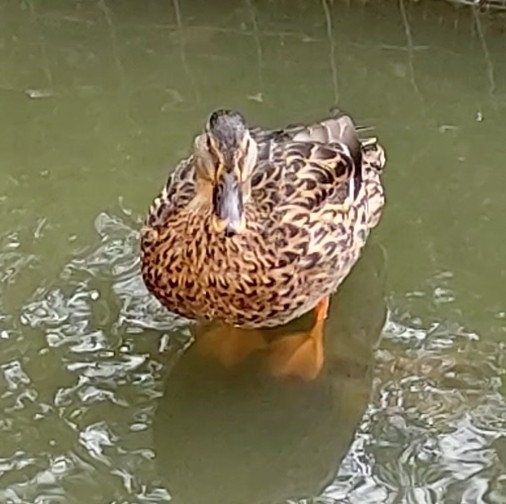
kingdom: Animalia
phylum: Chordata
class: Aves
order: Anseriformes
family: Anatidae
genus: Anas
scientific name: Anas platyrhynchos
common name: Mallard
